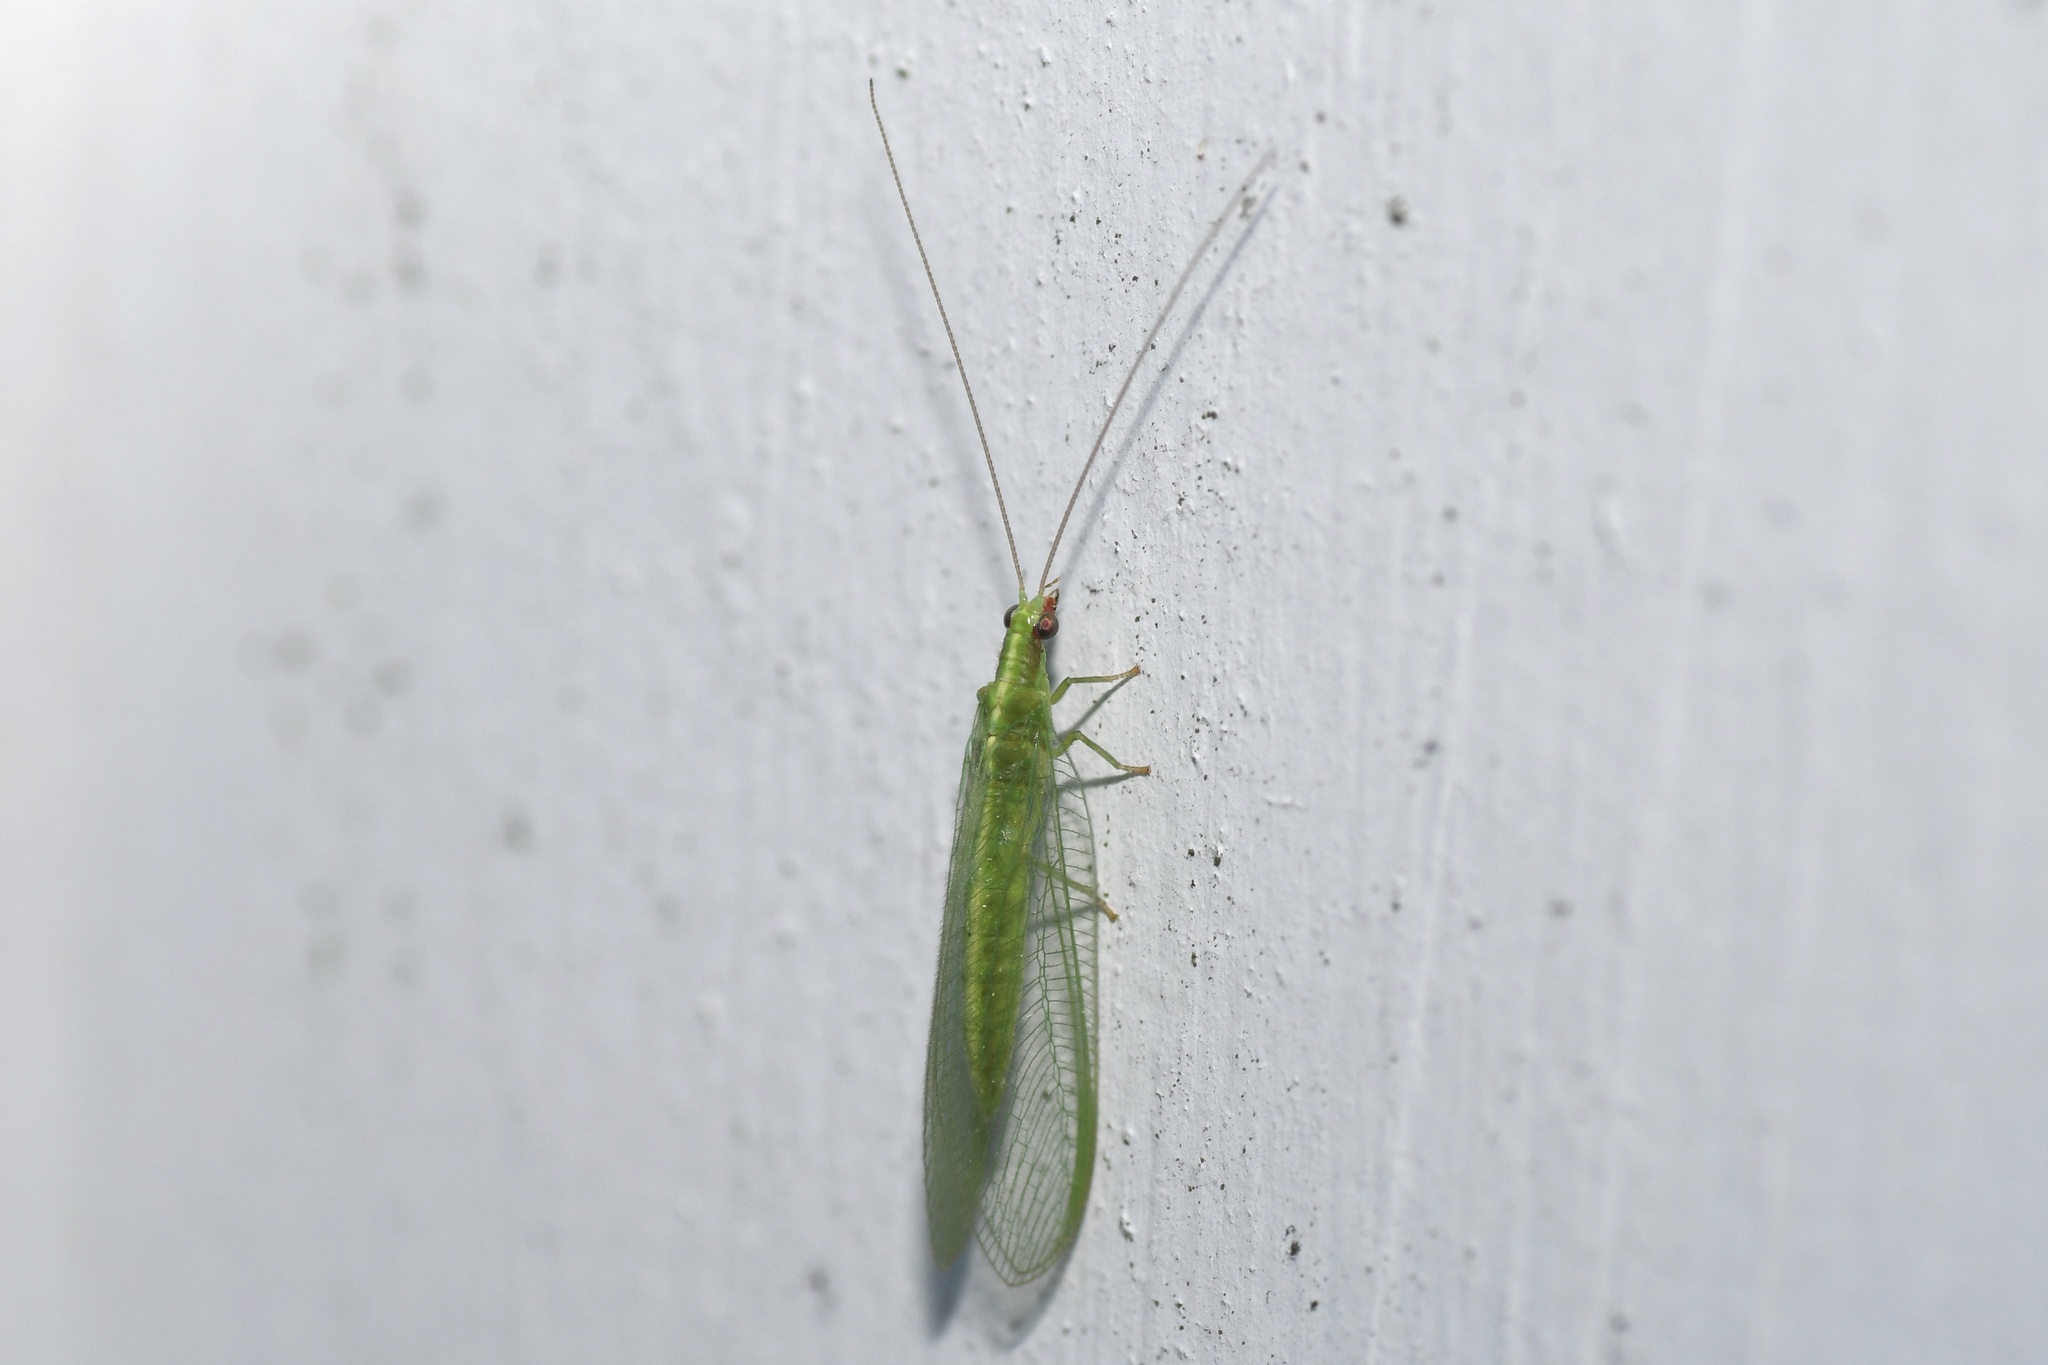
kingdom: Animalia
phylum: Arthropoda
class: Insecta
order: Neuroptera
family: Chrysopidae
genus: Chrysoperla
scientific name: Chrysoperla rufilabris
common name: Red-lipped green lacewing
